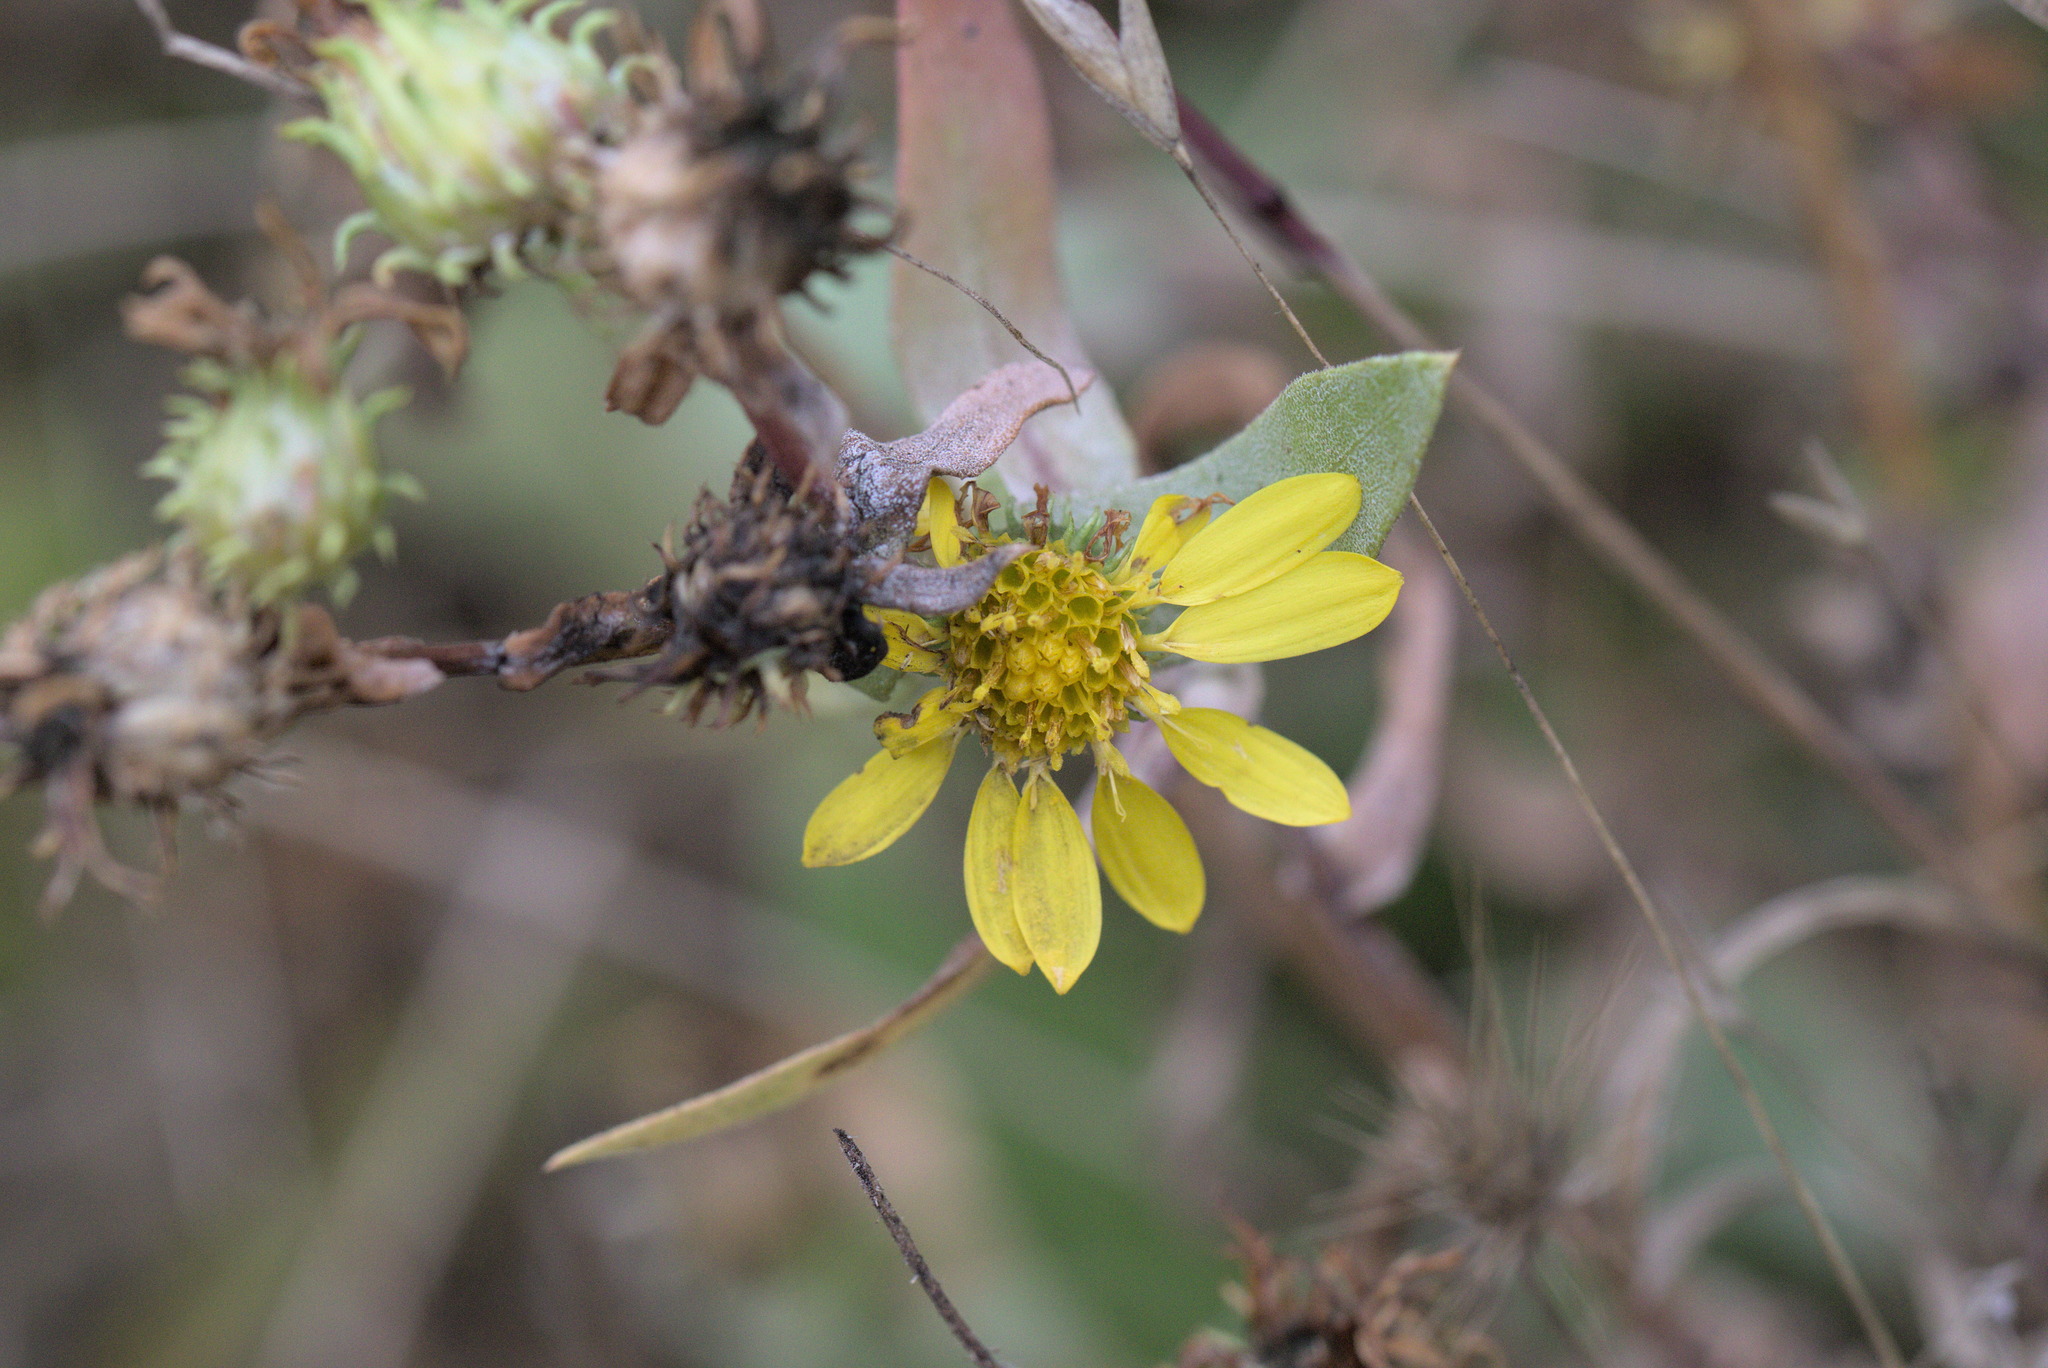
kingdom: Plantae
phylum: Tracheophyta
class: Magnoliopsida
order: Asterales
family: Asteraceae
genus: Grindelia
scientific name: Grindelia integrifolia
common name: Puget sound gumweed
